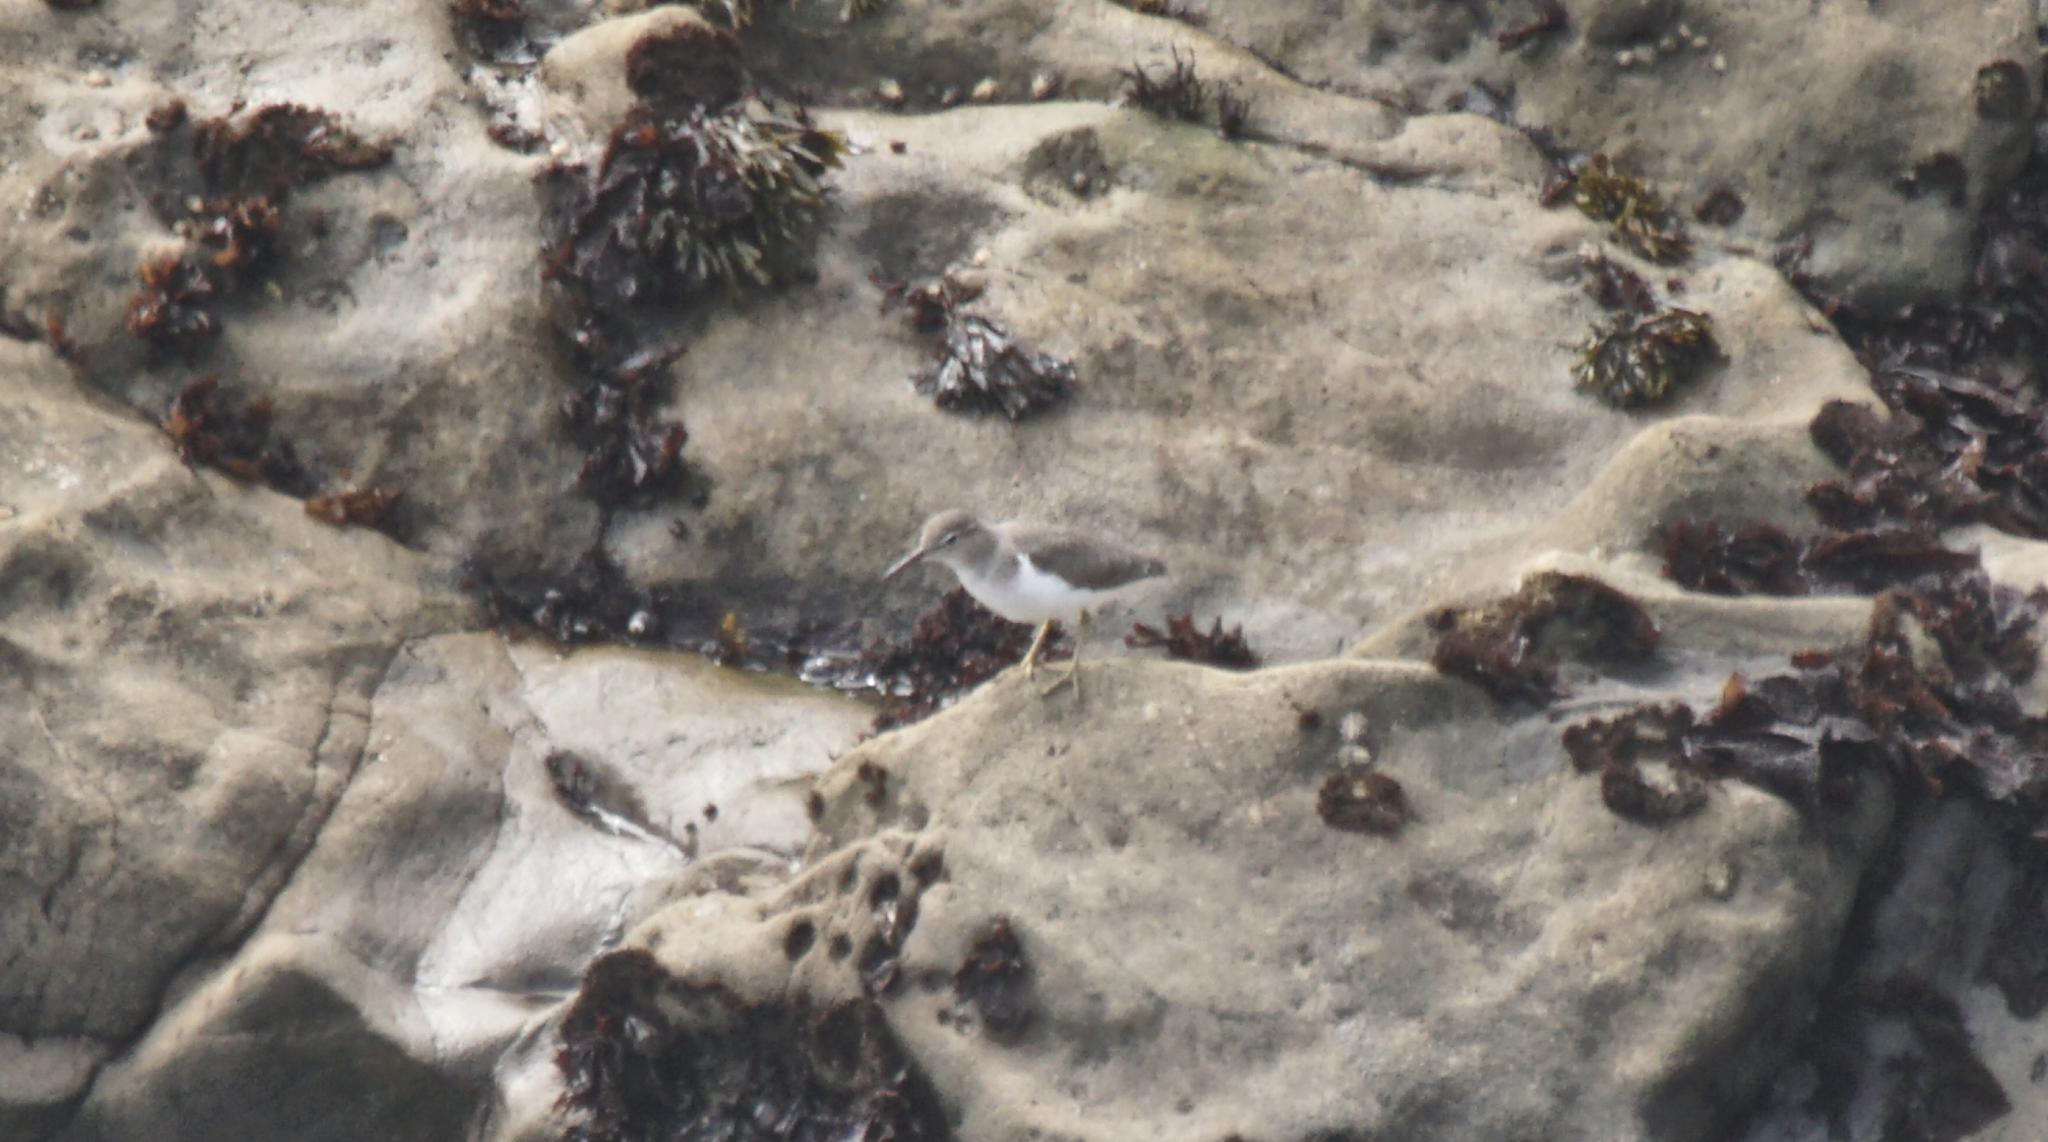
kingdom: Animalia
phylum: Chordata
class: Aves
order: Charadriiformes
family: Scolopacidae
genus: Actitis
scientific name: Actitis macularius
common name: Spotted sandpiper
